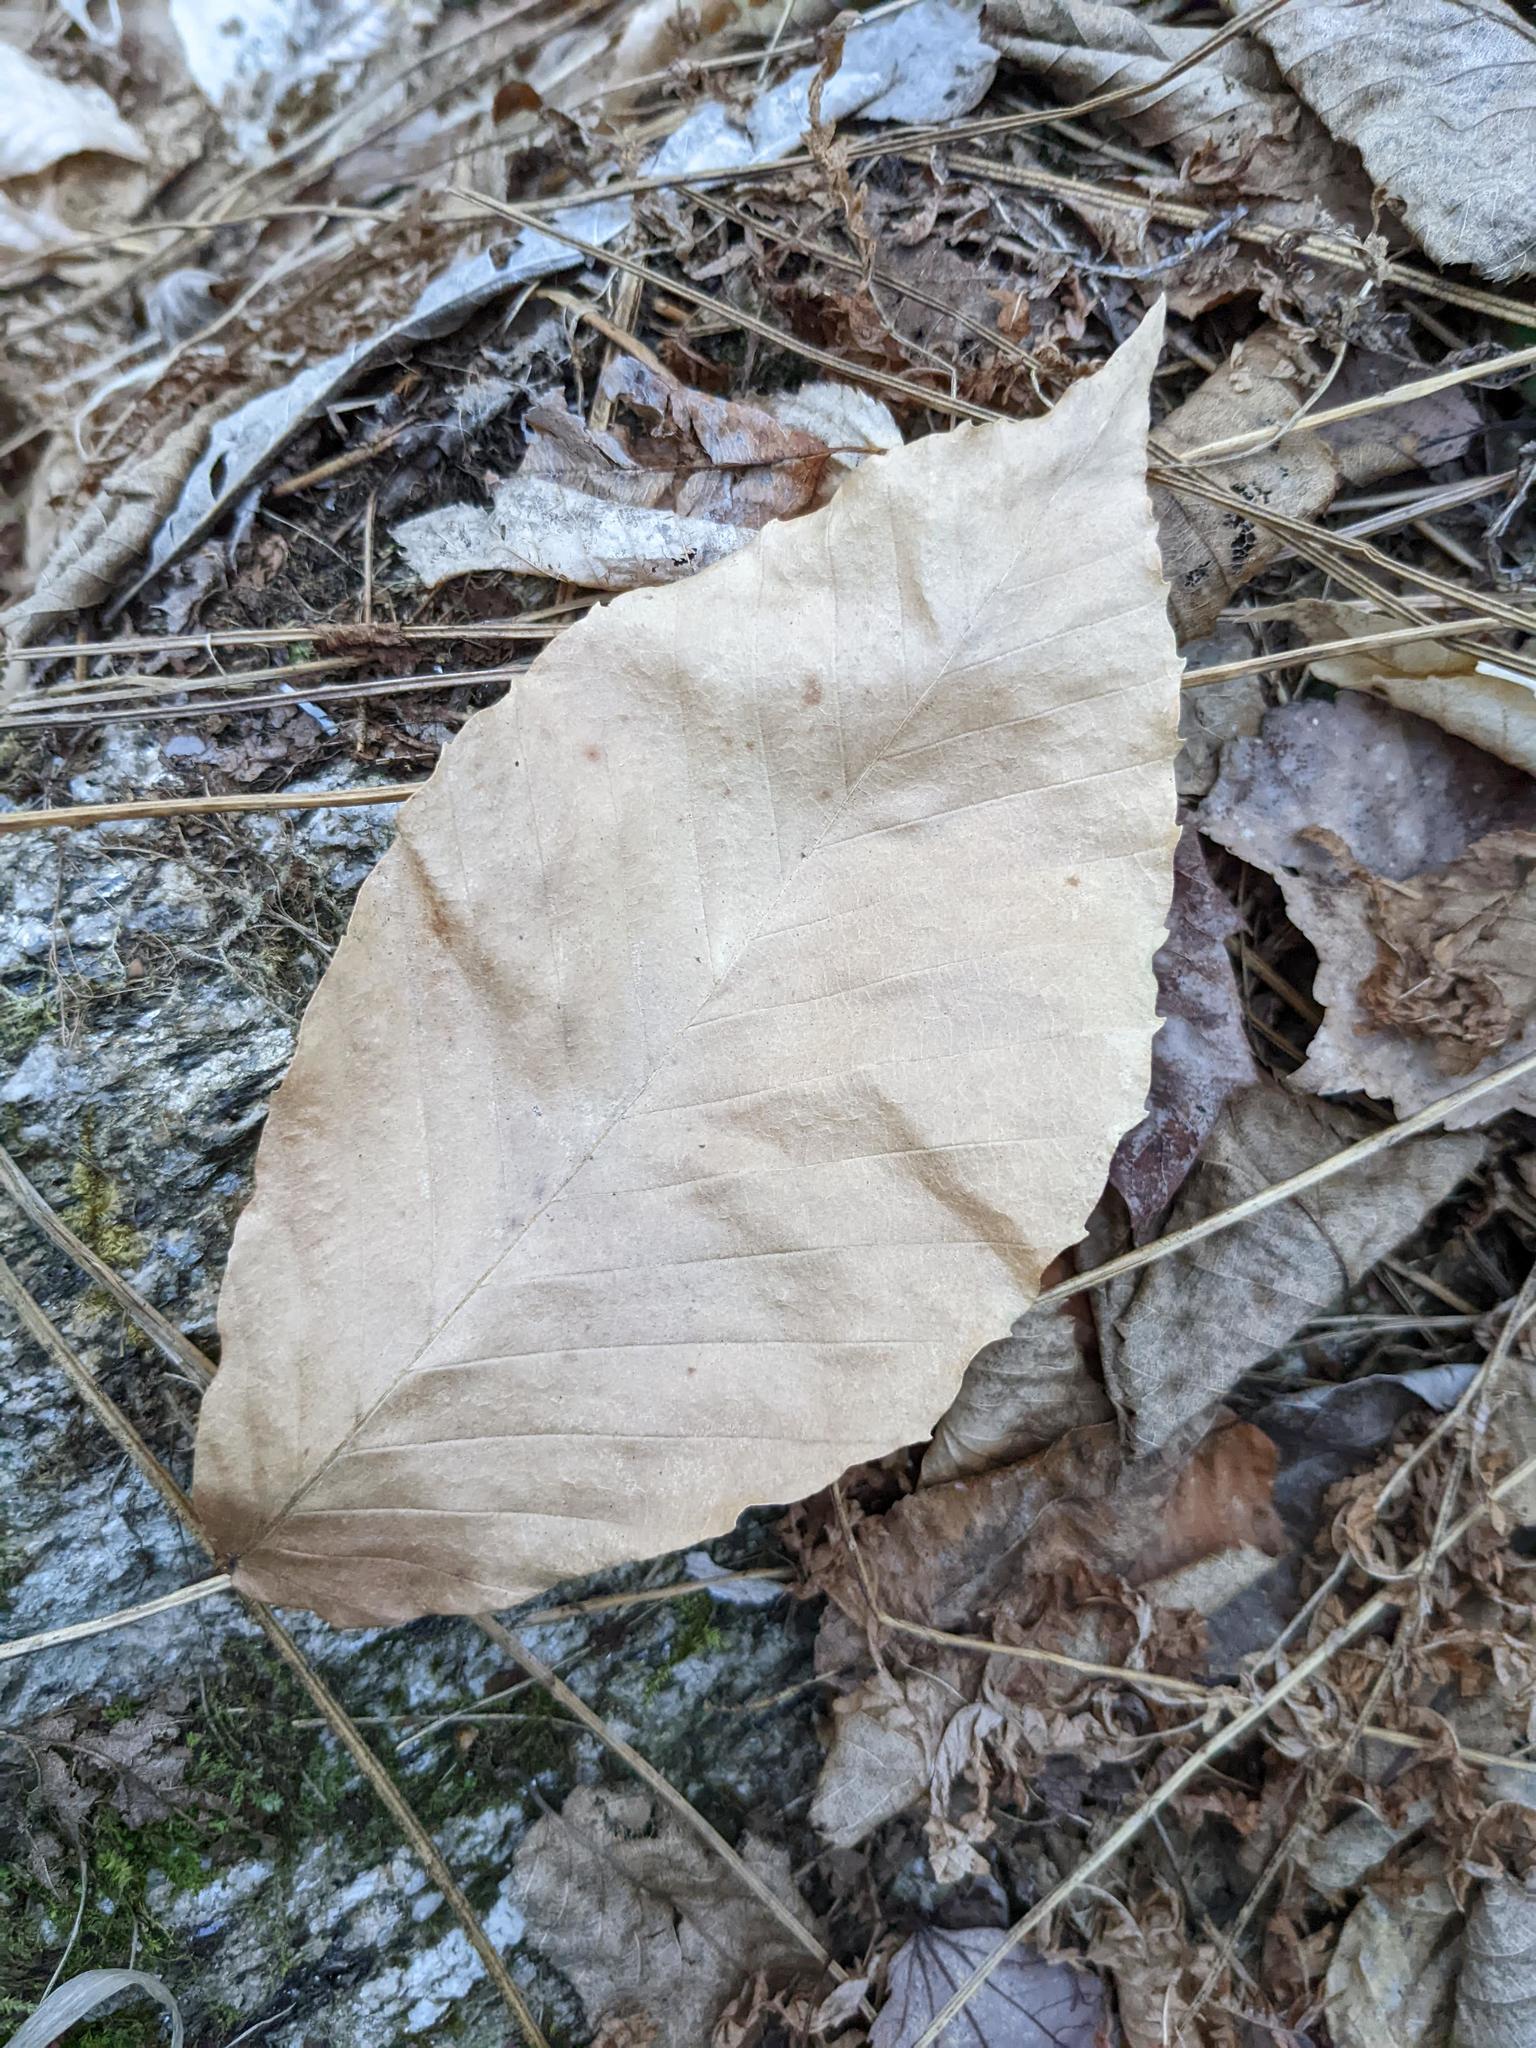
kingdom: Plantae
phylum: Tracheophyta
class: Magnoliopsida
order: Fagales
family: Fagaceae
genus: Fagus
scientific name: Fagus grandifolia
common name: American beech
